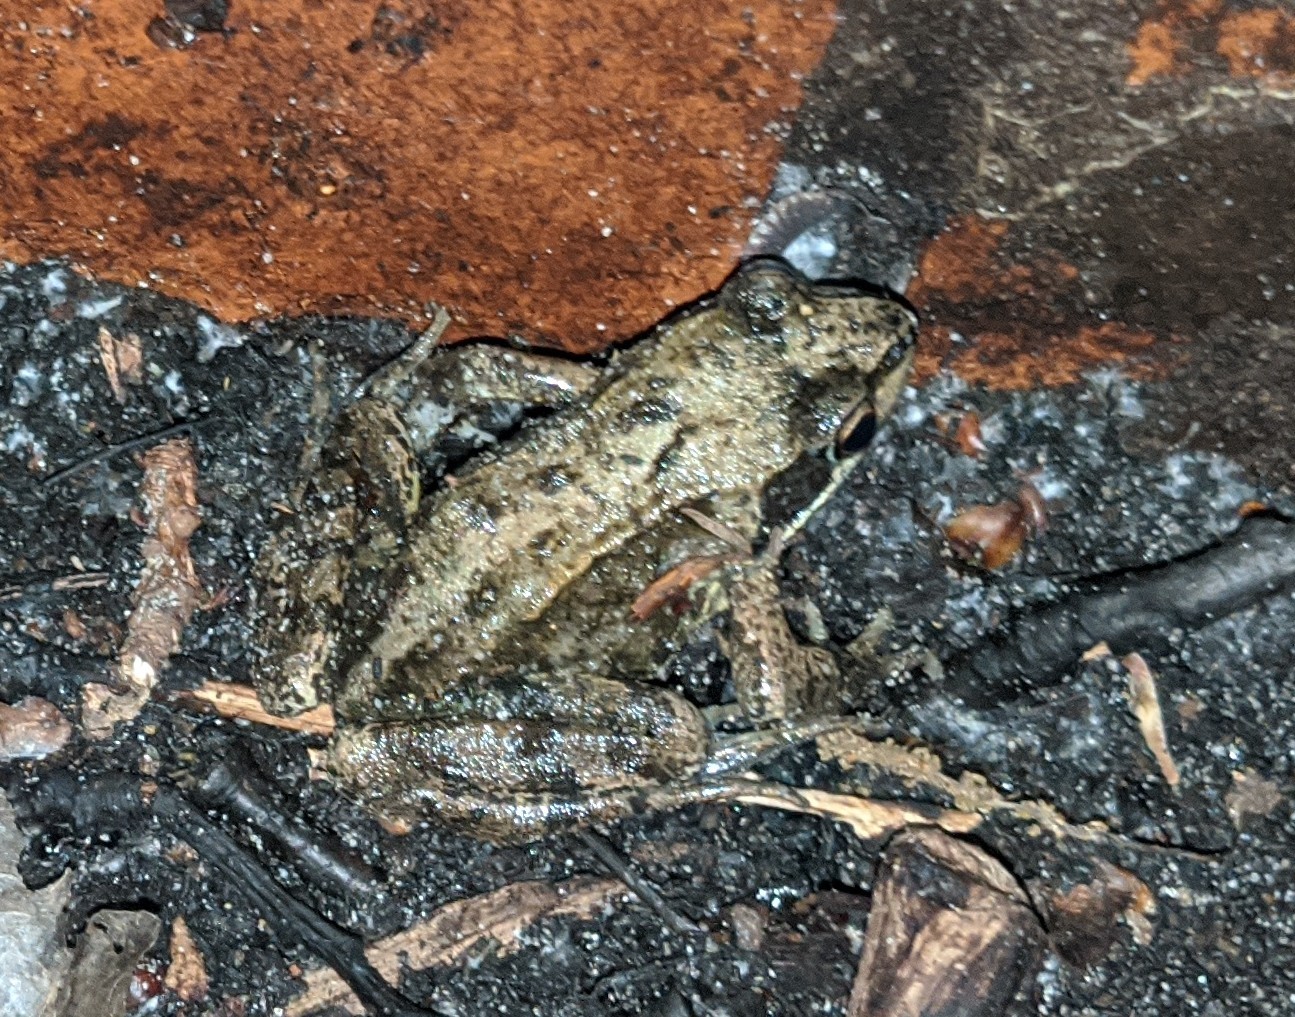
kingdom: Animalia
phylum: Chordata
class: Amphibia
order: Anura
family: Ranidae
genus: Rana
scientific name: Rana temporaria
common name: Common frog
